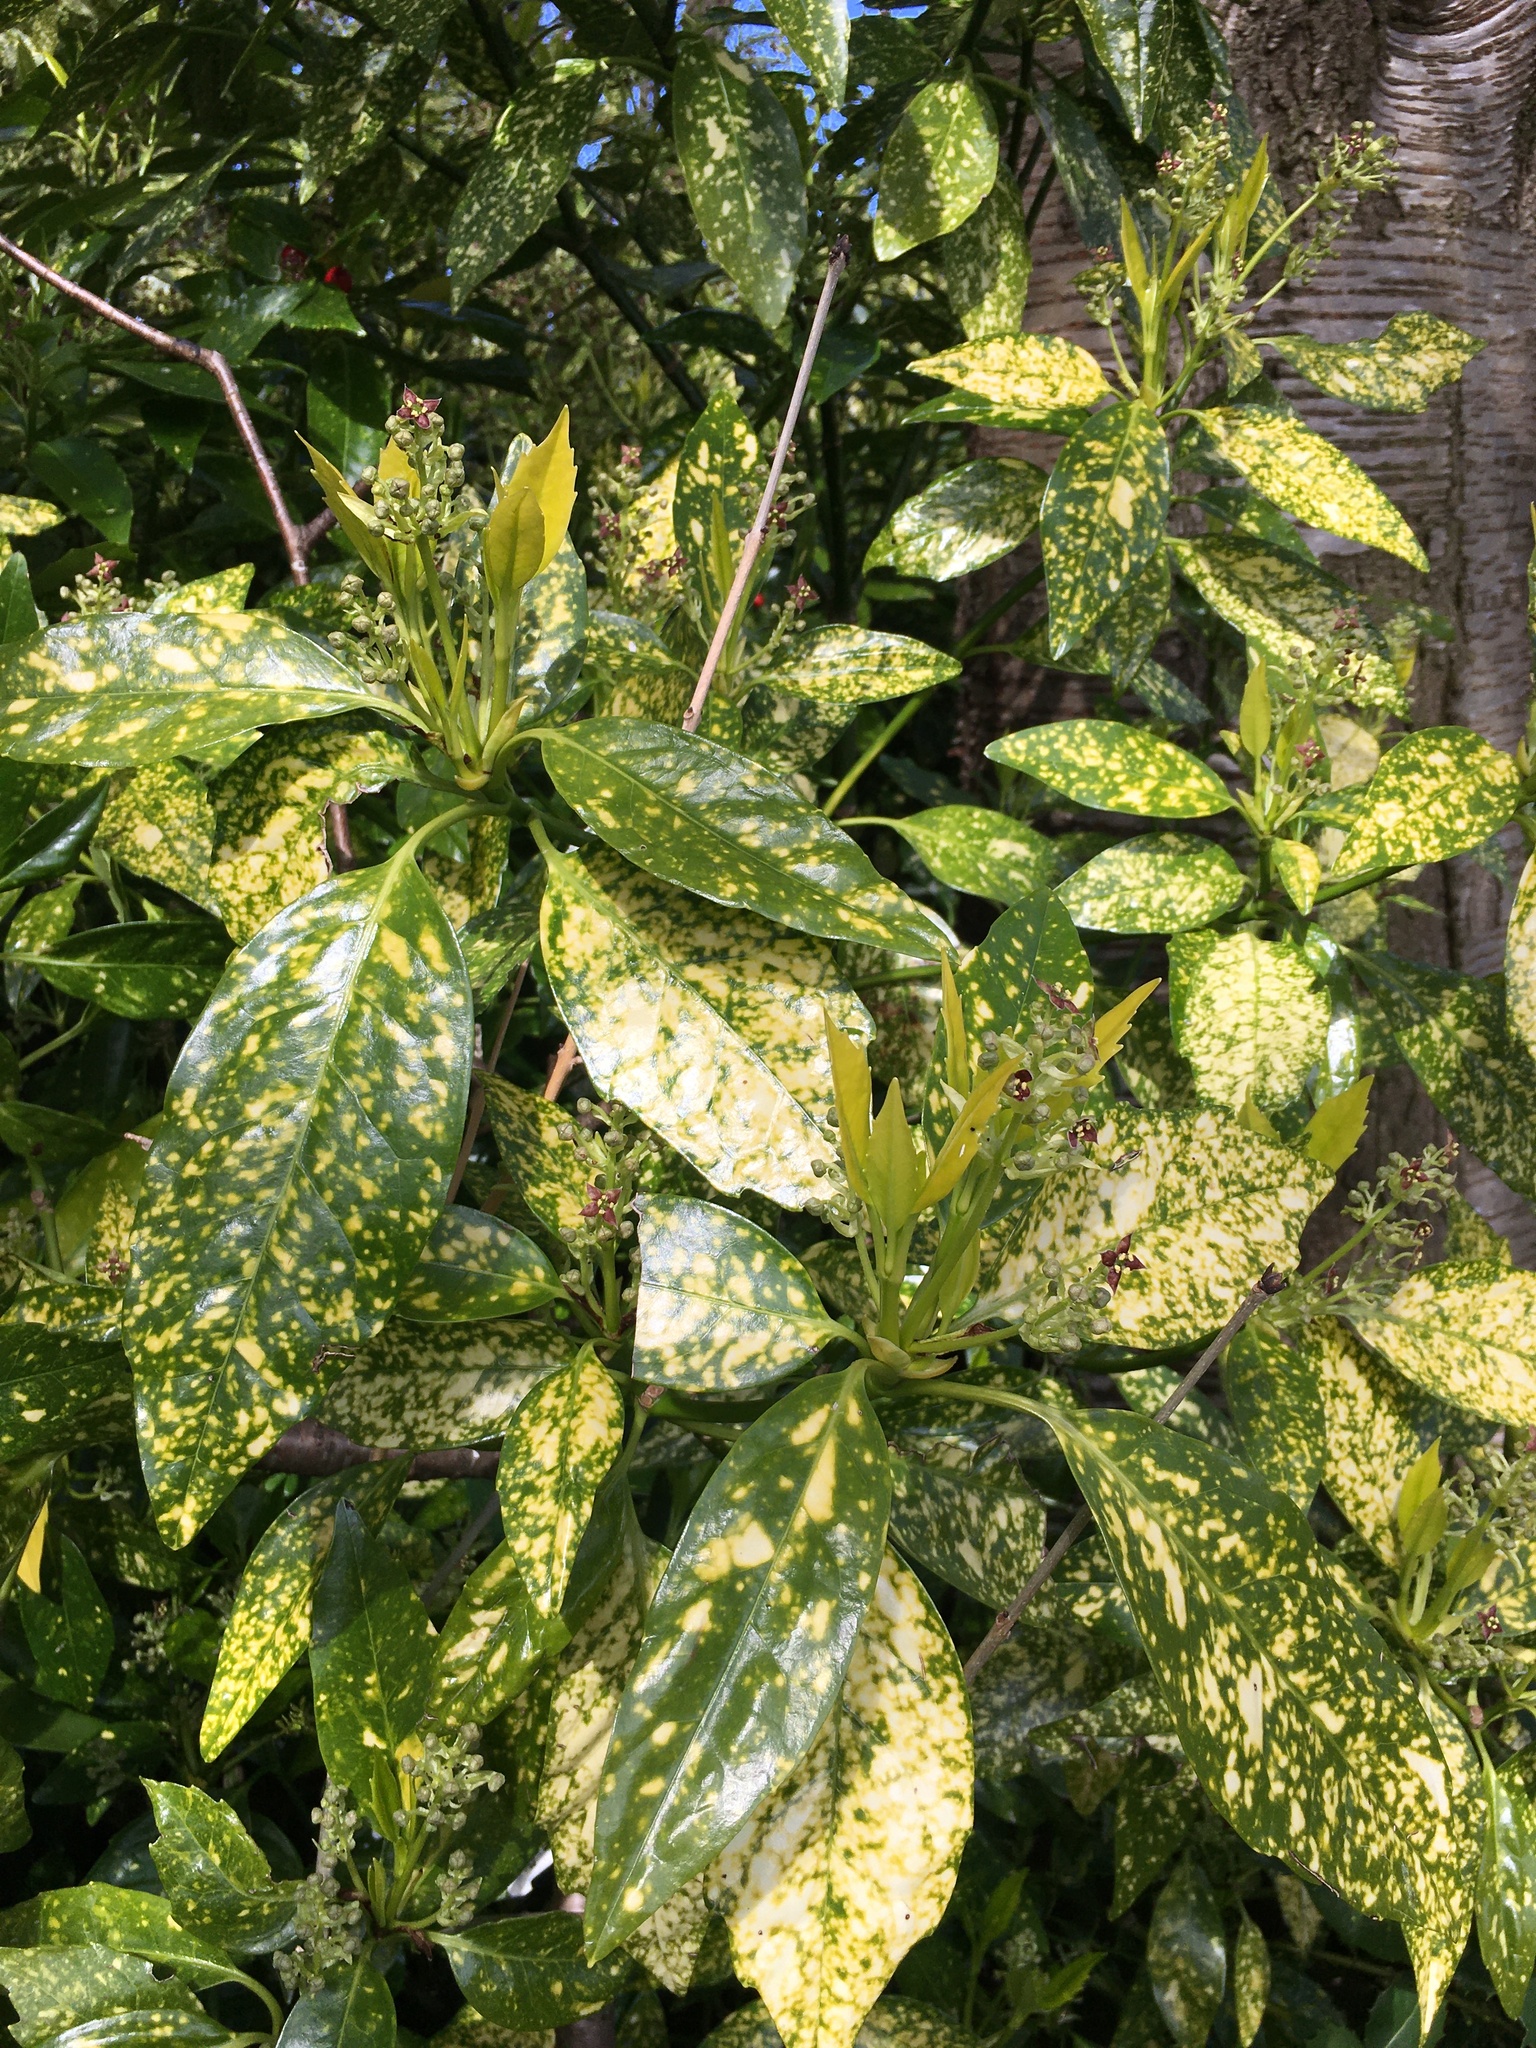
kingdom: Plantae
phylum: Tracheophyta
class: Magnoliopsida
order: Garryales
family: Garryaceae
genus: Aucuba
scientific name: Aucuba japonica
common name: Spotted-laurel
